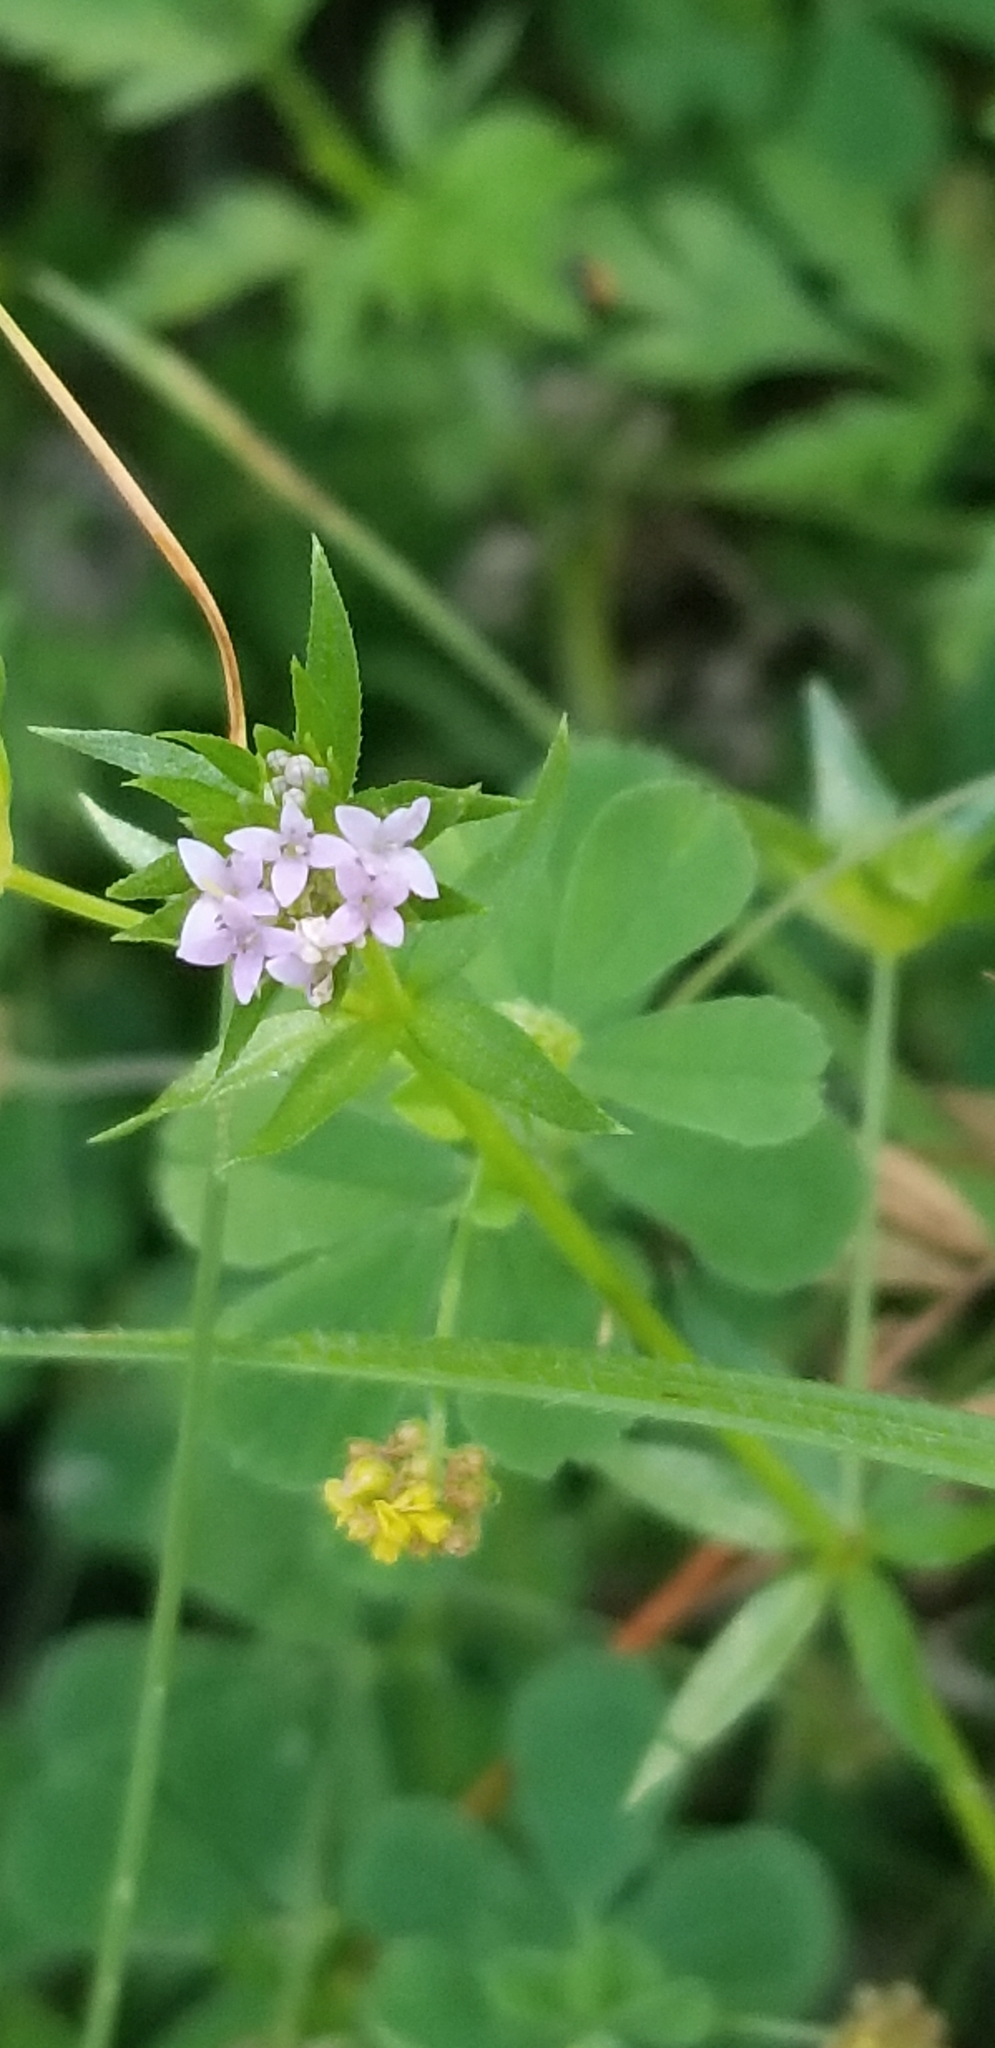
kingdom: Plantae
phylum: Tracheophyta
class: Magnoliopsida
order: Gentianales
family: Rubiaceae
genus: Sherardia
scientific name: Sherardia arvensis
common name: Field madder
